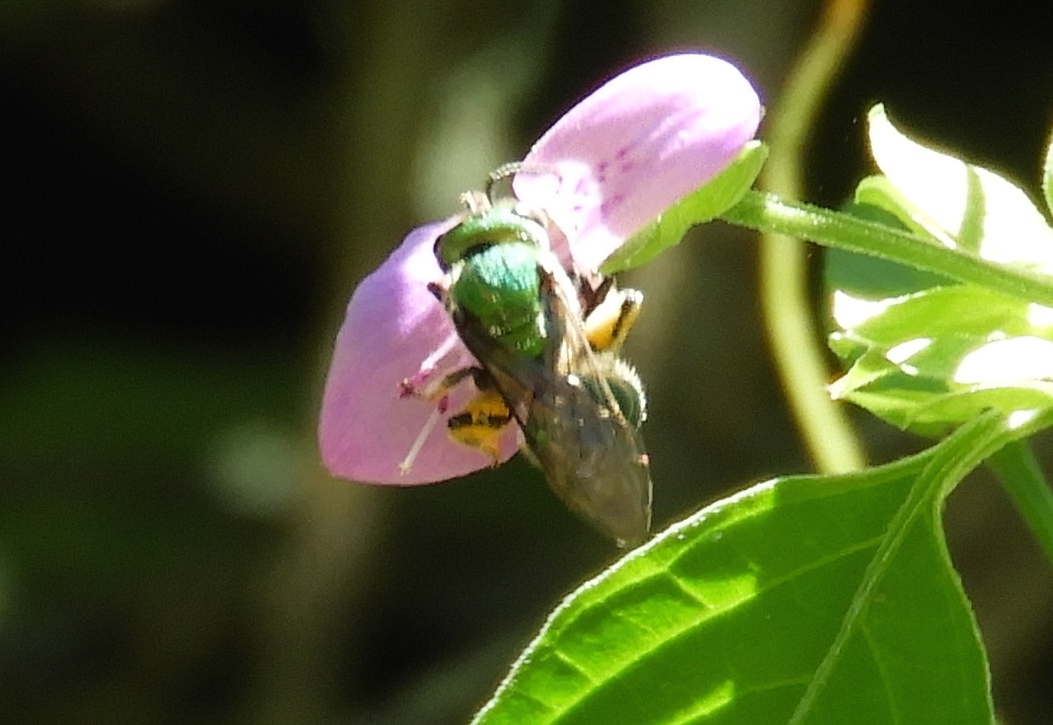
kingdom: Animalia
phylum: Arthropoda
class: Insecta
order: Hymenoptera
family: Halictidae
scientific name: Halictidae
